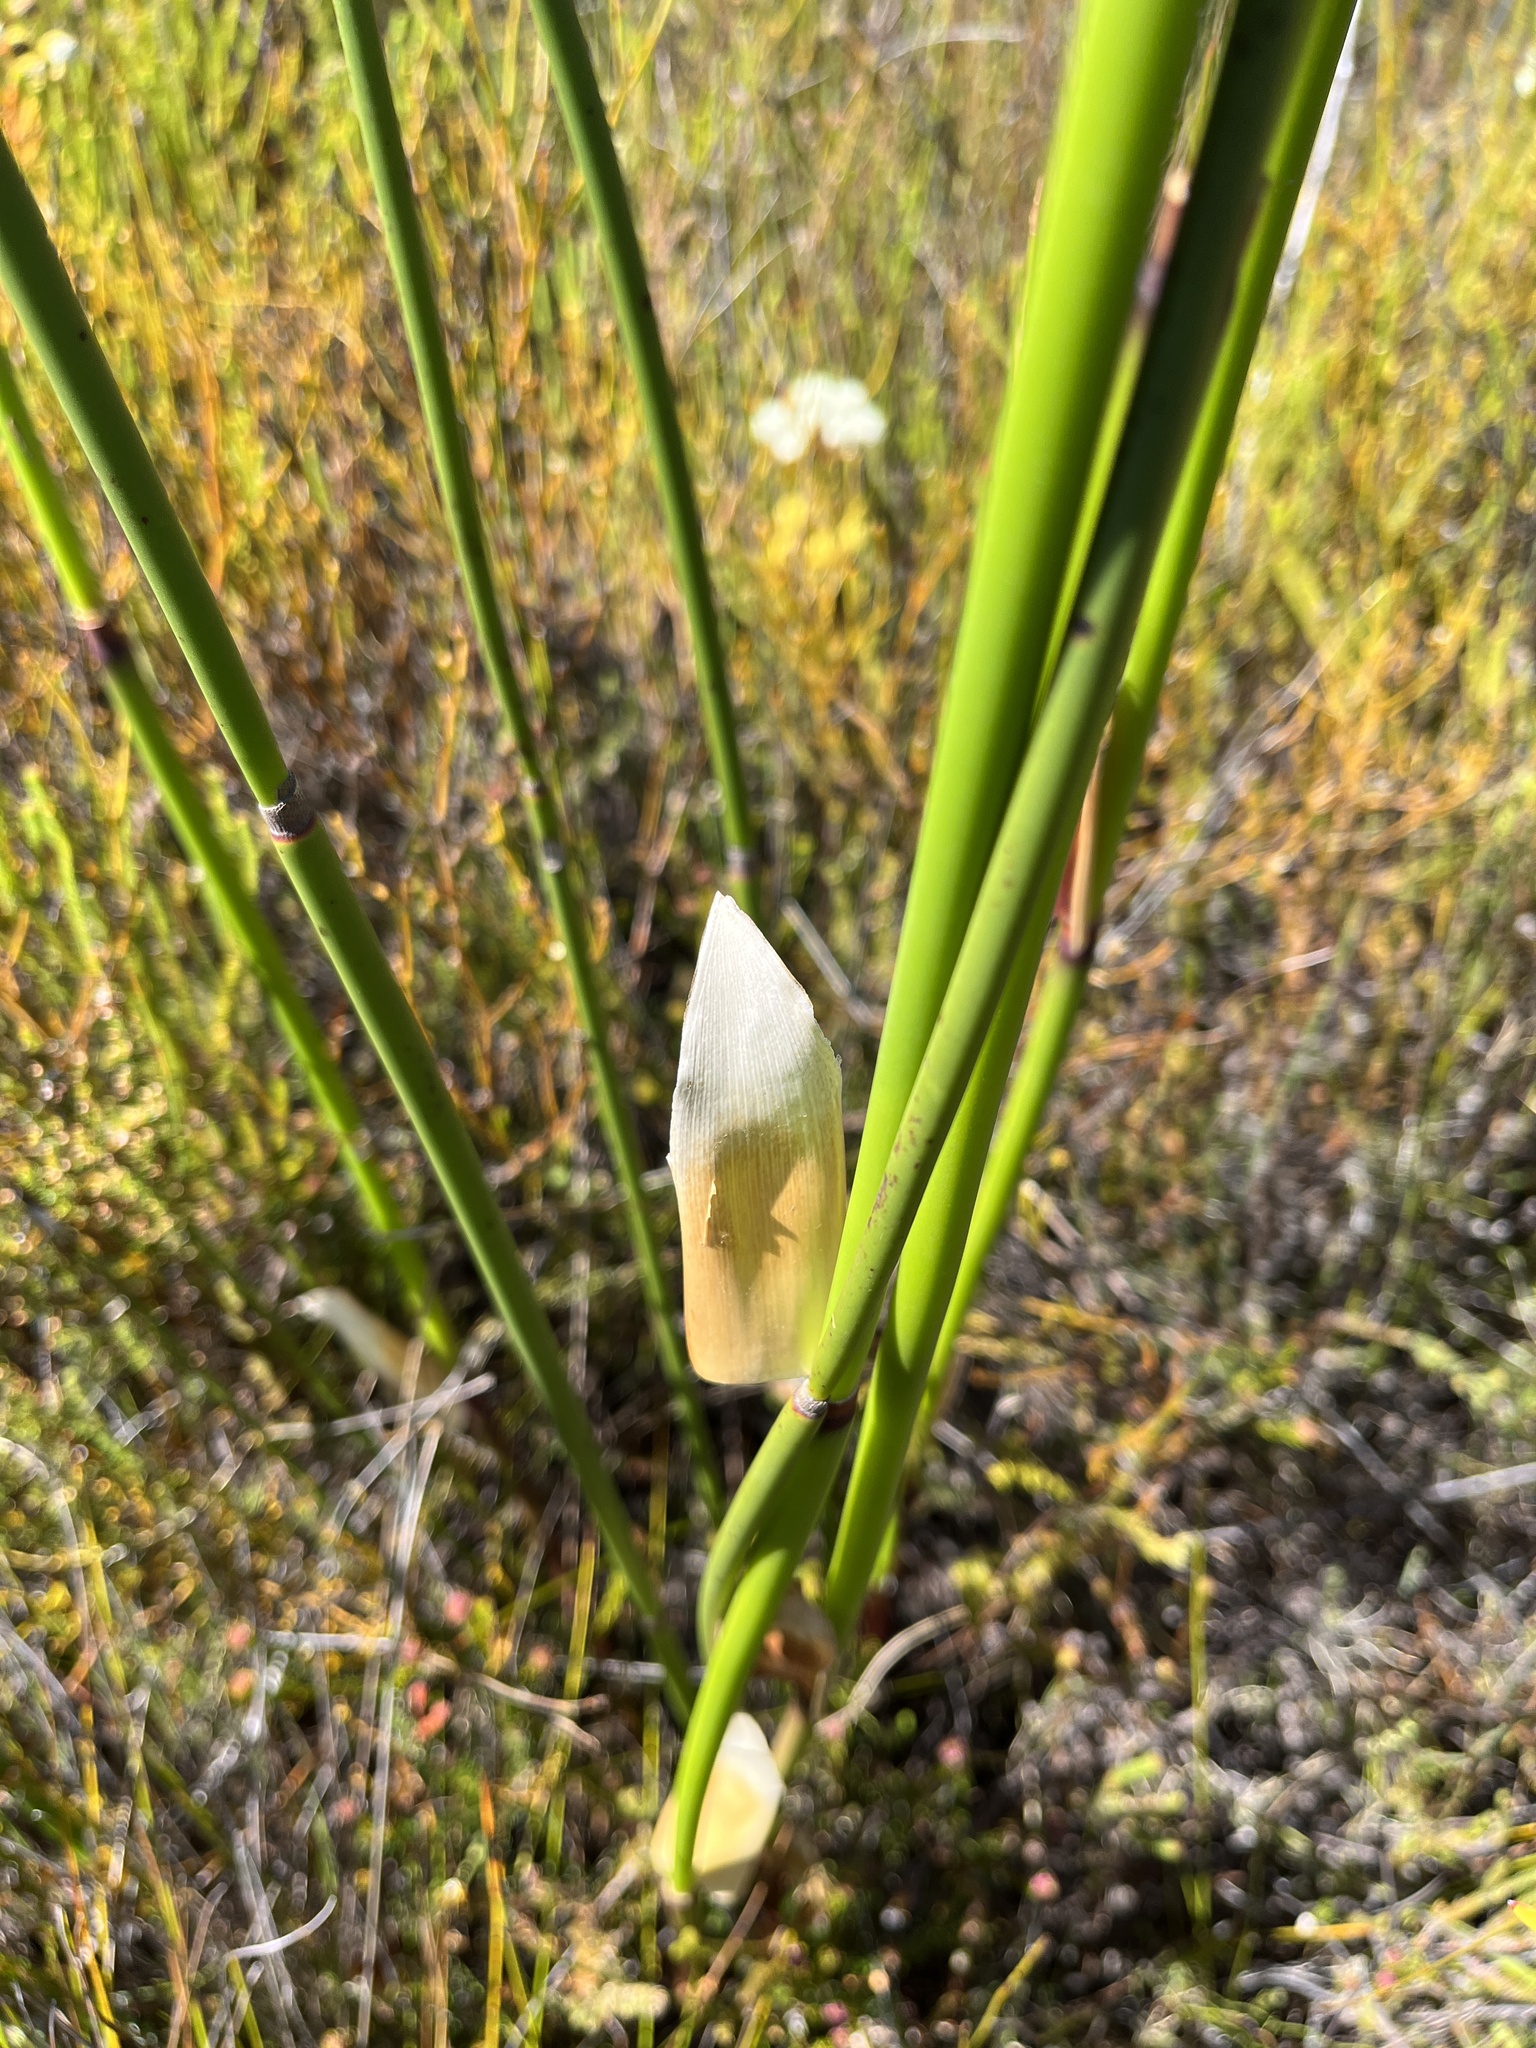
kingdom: Plantae
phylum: Tracheophyta
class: Liliopsida
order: Poales
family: Restionaceae
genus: Elegia
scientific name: Elegia mucronata
